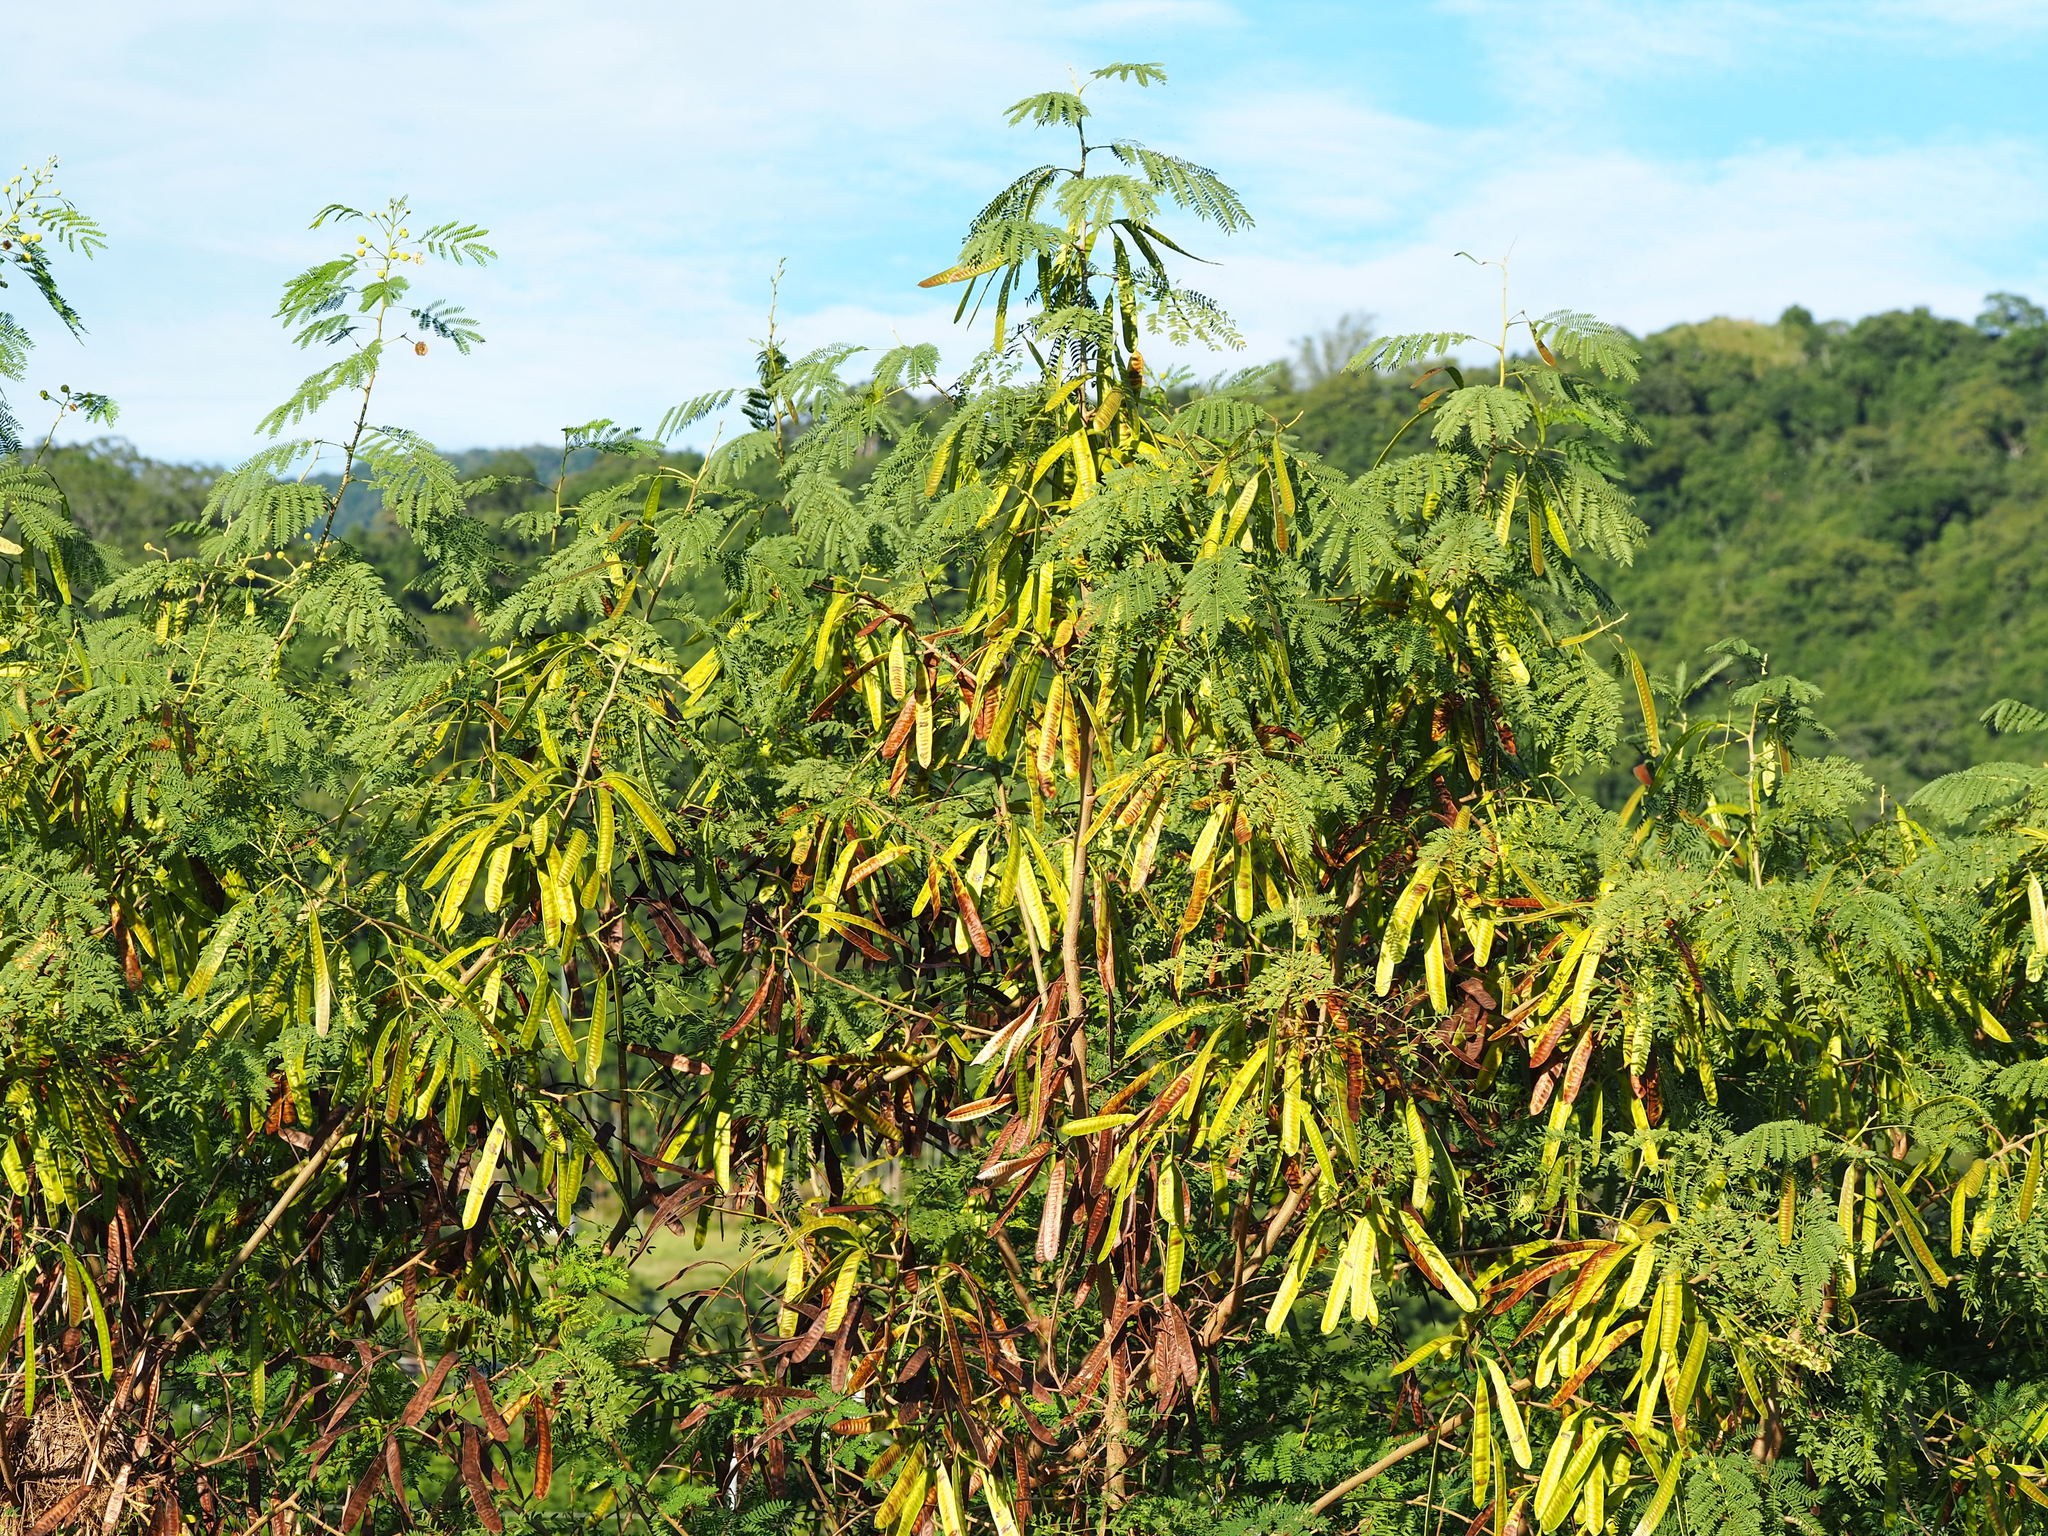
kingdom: Plantae
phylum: Tracheophyta
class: Magnoliopsida
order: Fabales
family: Fabaceae
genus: Leucaena
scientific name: Leucaena leucocephala
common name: White leadtree
